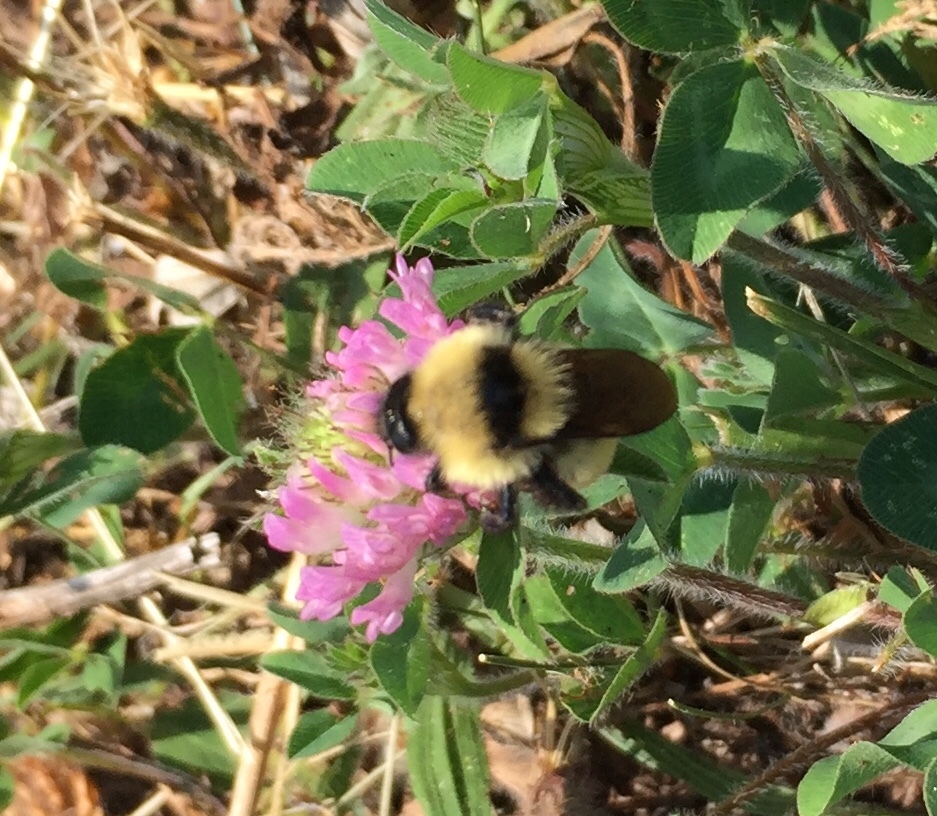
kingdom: Animalia
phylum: Arthropoda
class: Insecta
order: Hymenoptera
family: Apidae
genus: Bombus
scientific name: Bombus fervidus
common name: Yellow bumble bee
